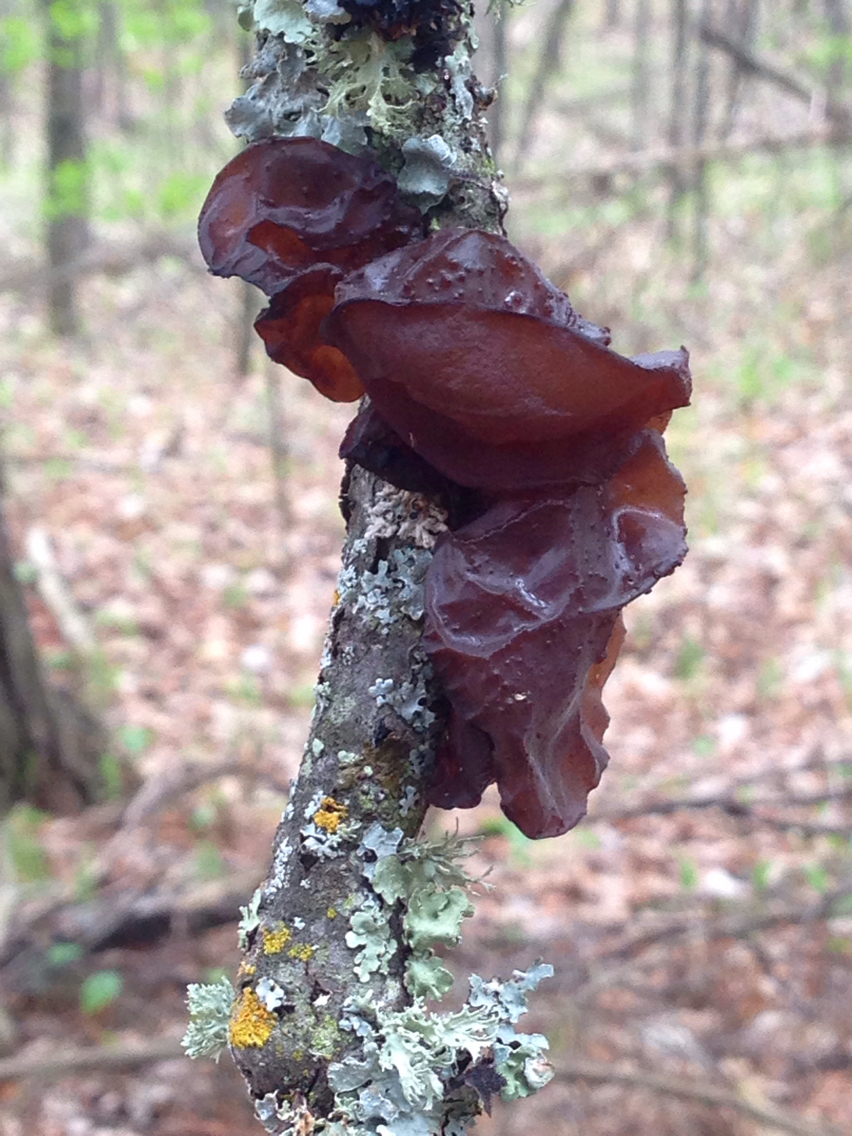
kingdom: Fungi
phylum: Basidiomycota
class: Agaricomycetes
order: Auriculariales
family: Auriculariaceae
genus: Exidia
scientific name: Exidia
